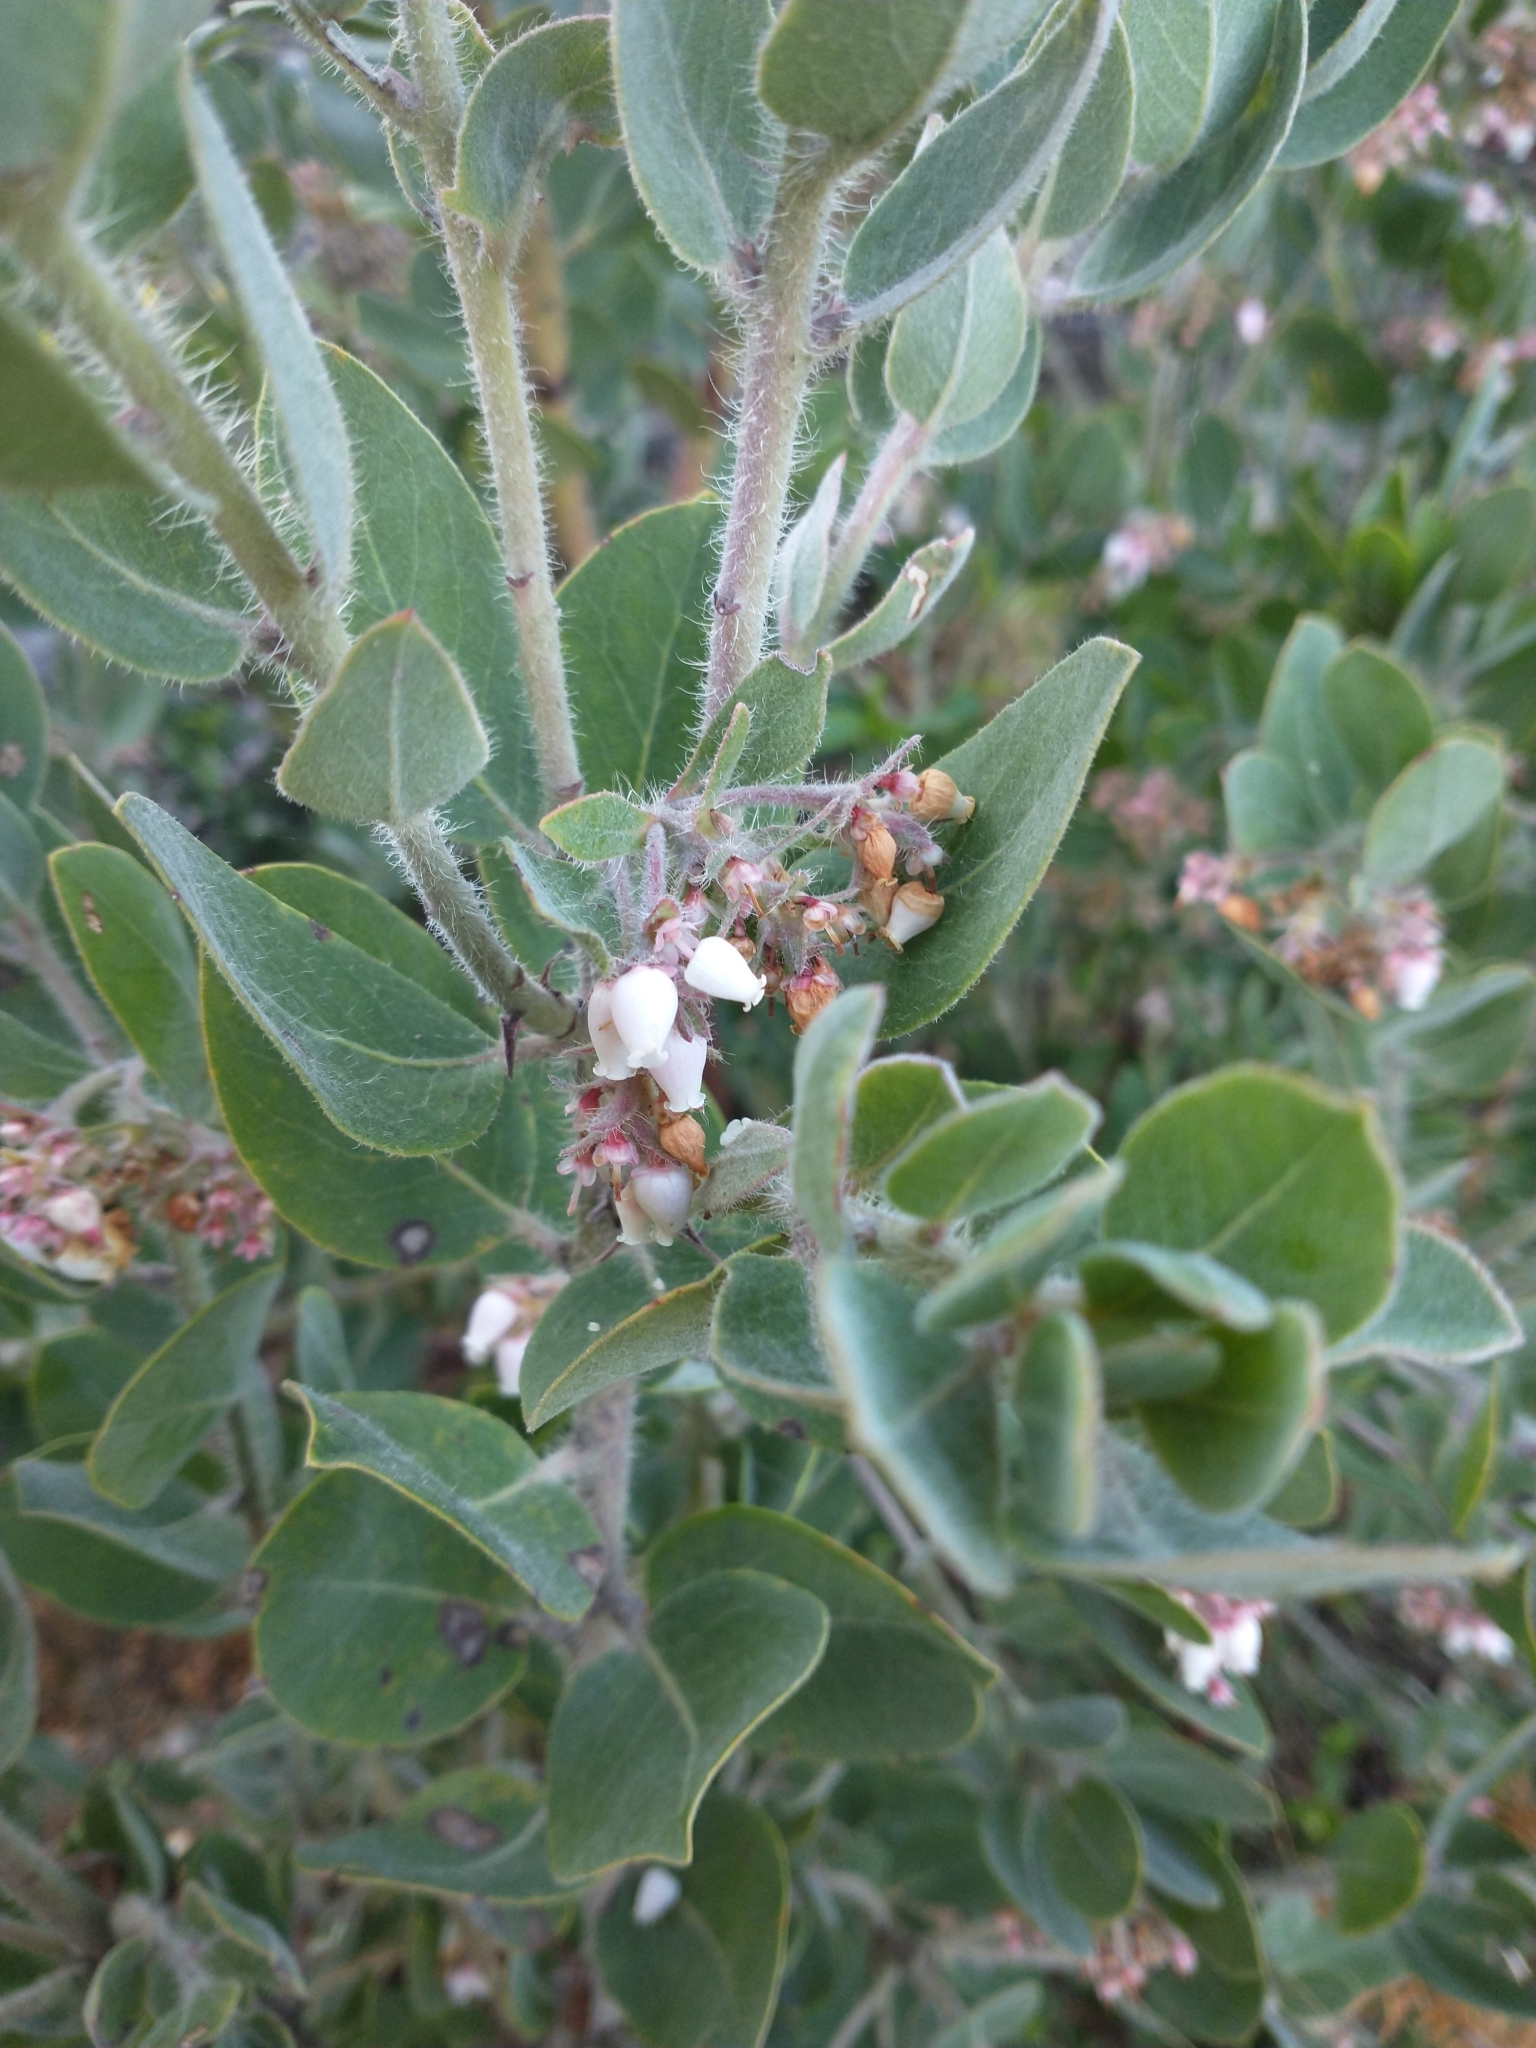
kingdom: Plantae
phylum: Tracheophyta
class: Magnoliopsida
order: Ericales
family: Ericaceae
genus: Arctostaphylos
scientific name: Arctostaphylos columbiana
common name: Bristly bearberry
